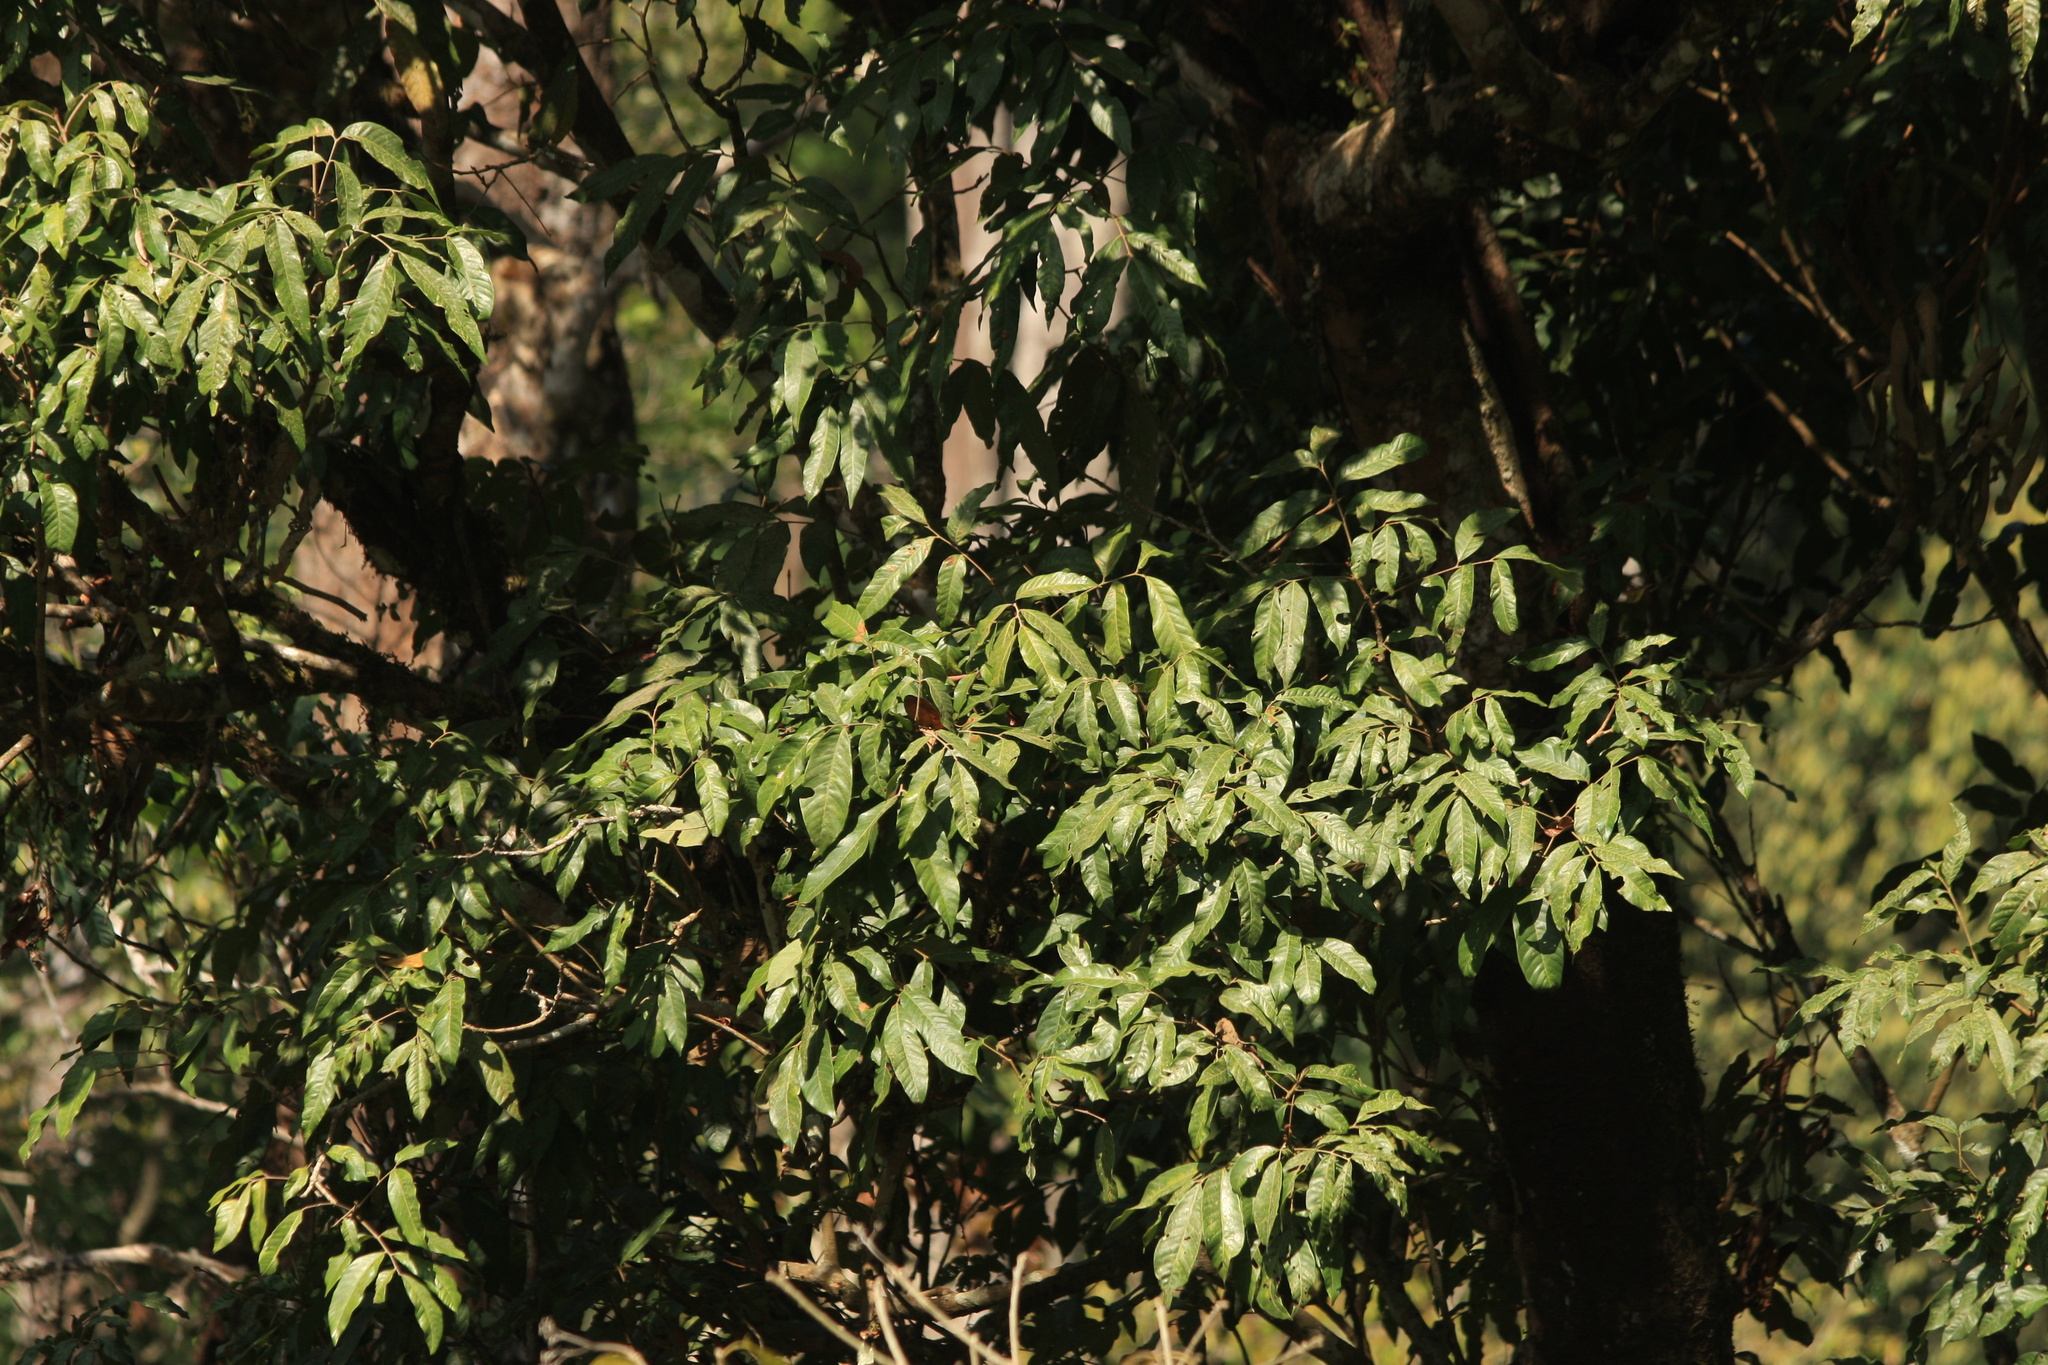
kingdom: Plantae
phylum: Tracheophyta
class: Magnoliopsida
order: Sapindales
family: Sapindaceae
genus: Dimocarpus
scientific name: Dimocarpus longan
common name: Longan
